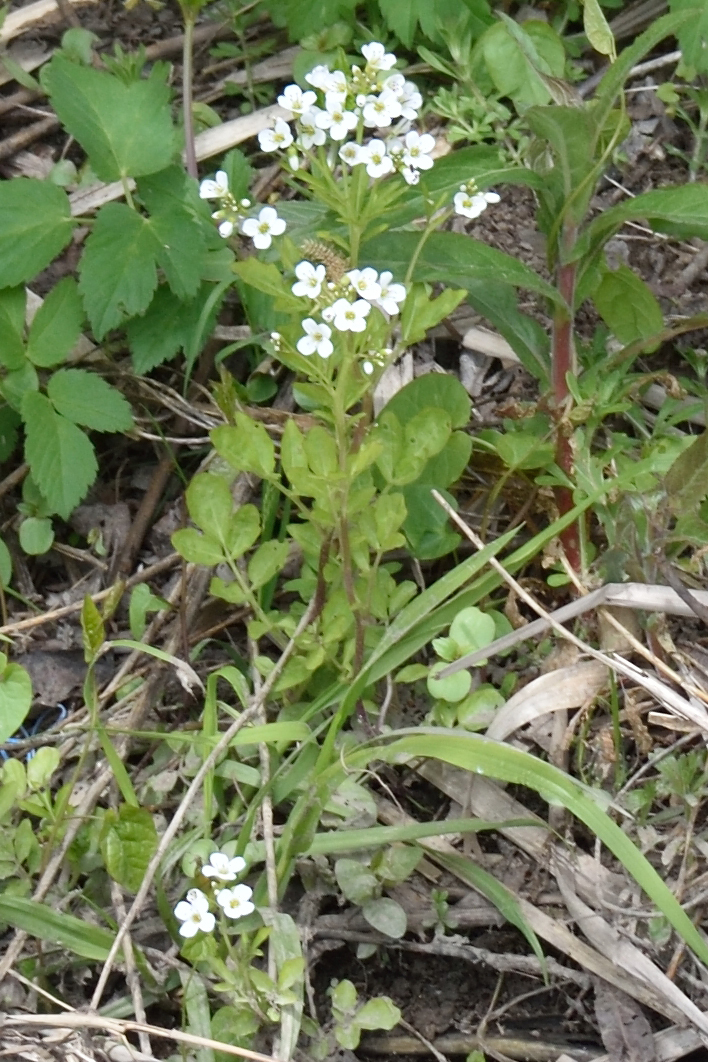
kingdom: Plantae
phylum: Tracheophyta
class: Magnoliopsida
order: Brassicales
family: Brassicaceae
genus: Cardamine
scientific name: Cardamine amara
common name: Large bitter-cress
